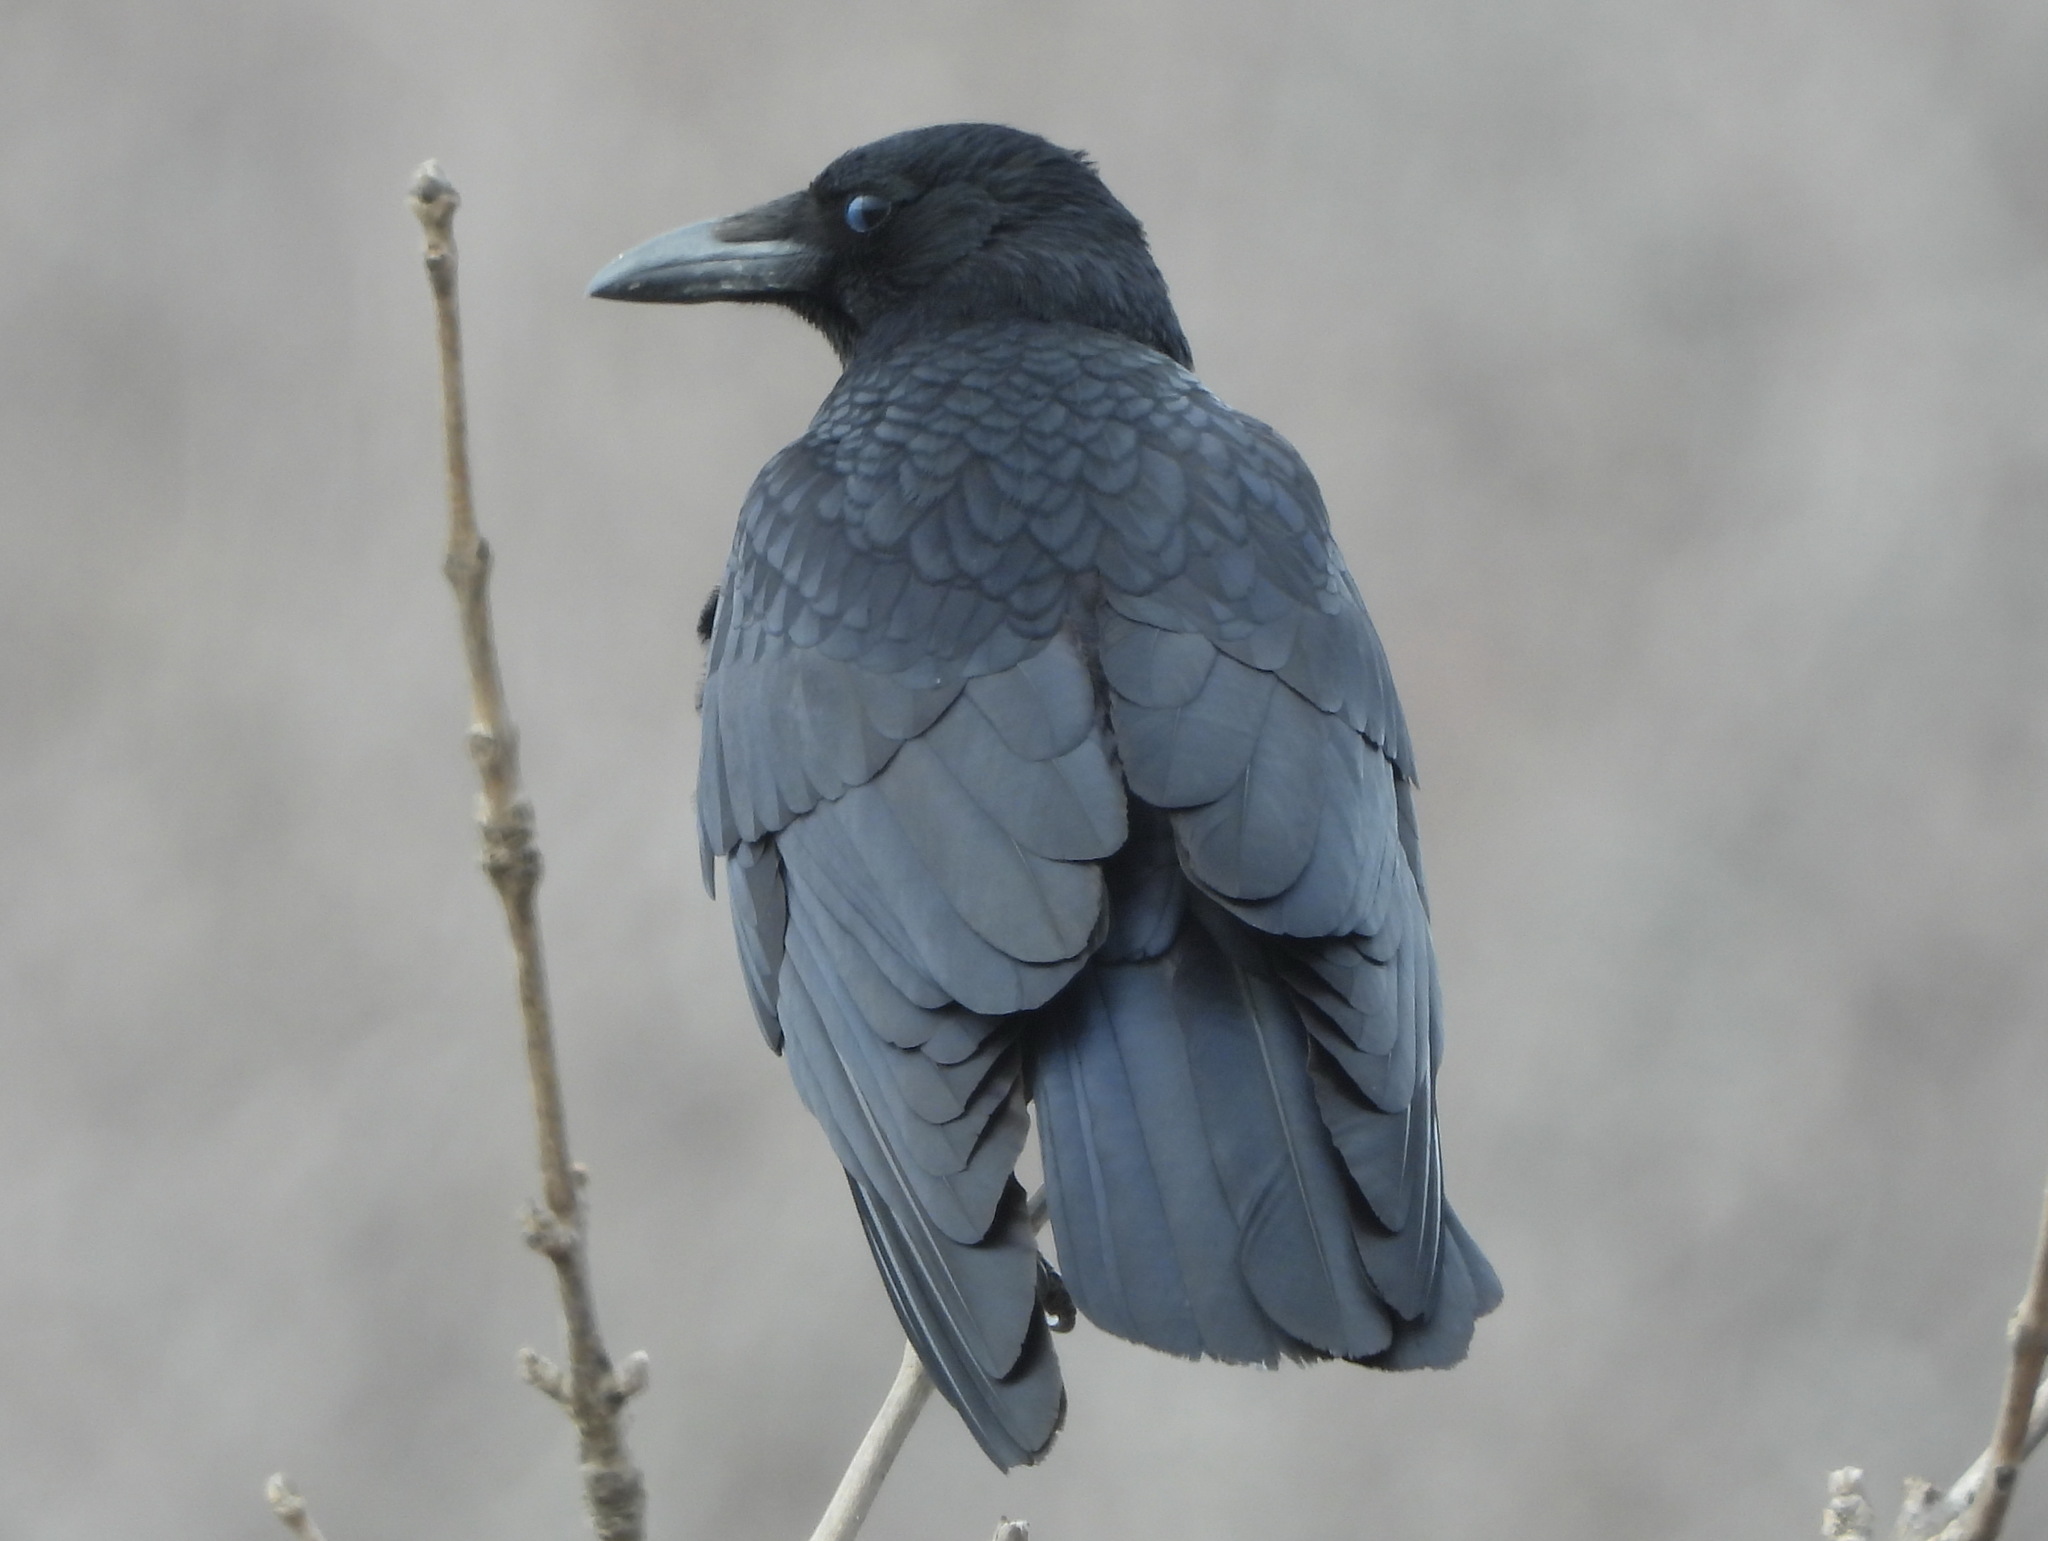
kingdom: Animalia
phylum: Chordata
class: Aves
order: Passeriformes
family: Corvidae
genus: Corvus
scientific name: Corvus corone
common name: Carrion crow
